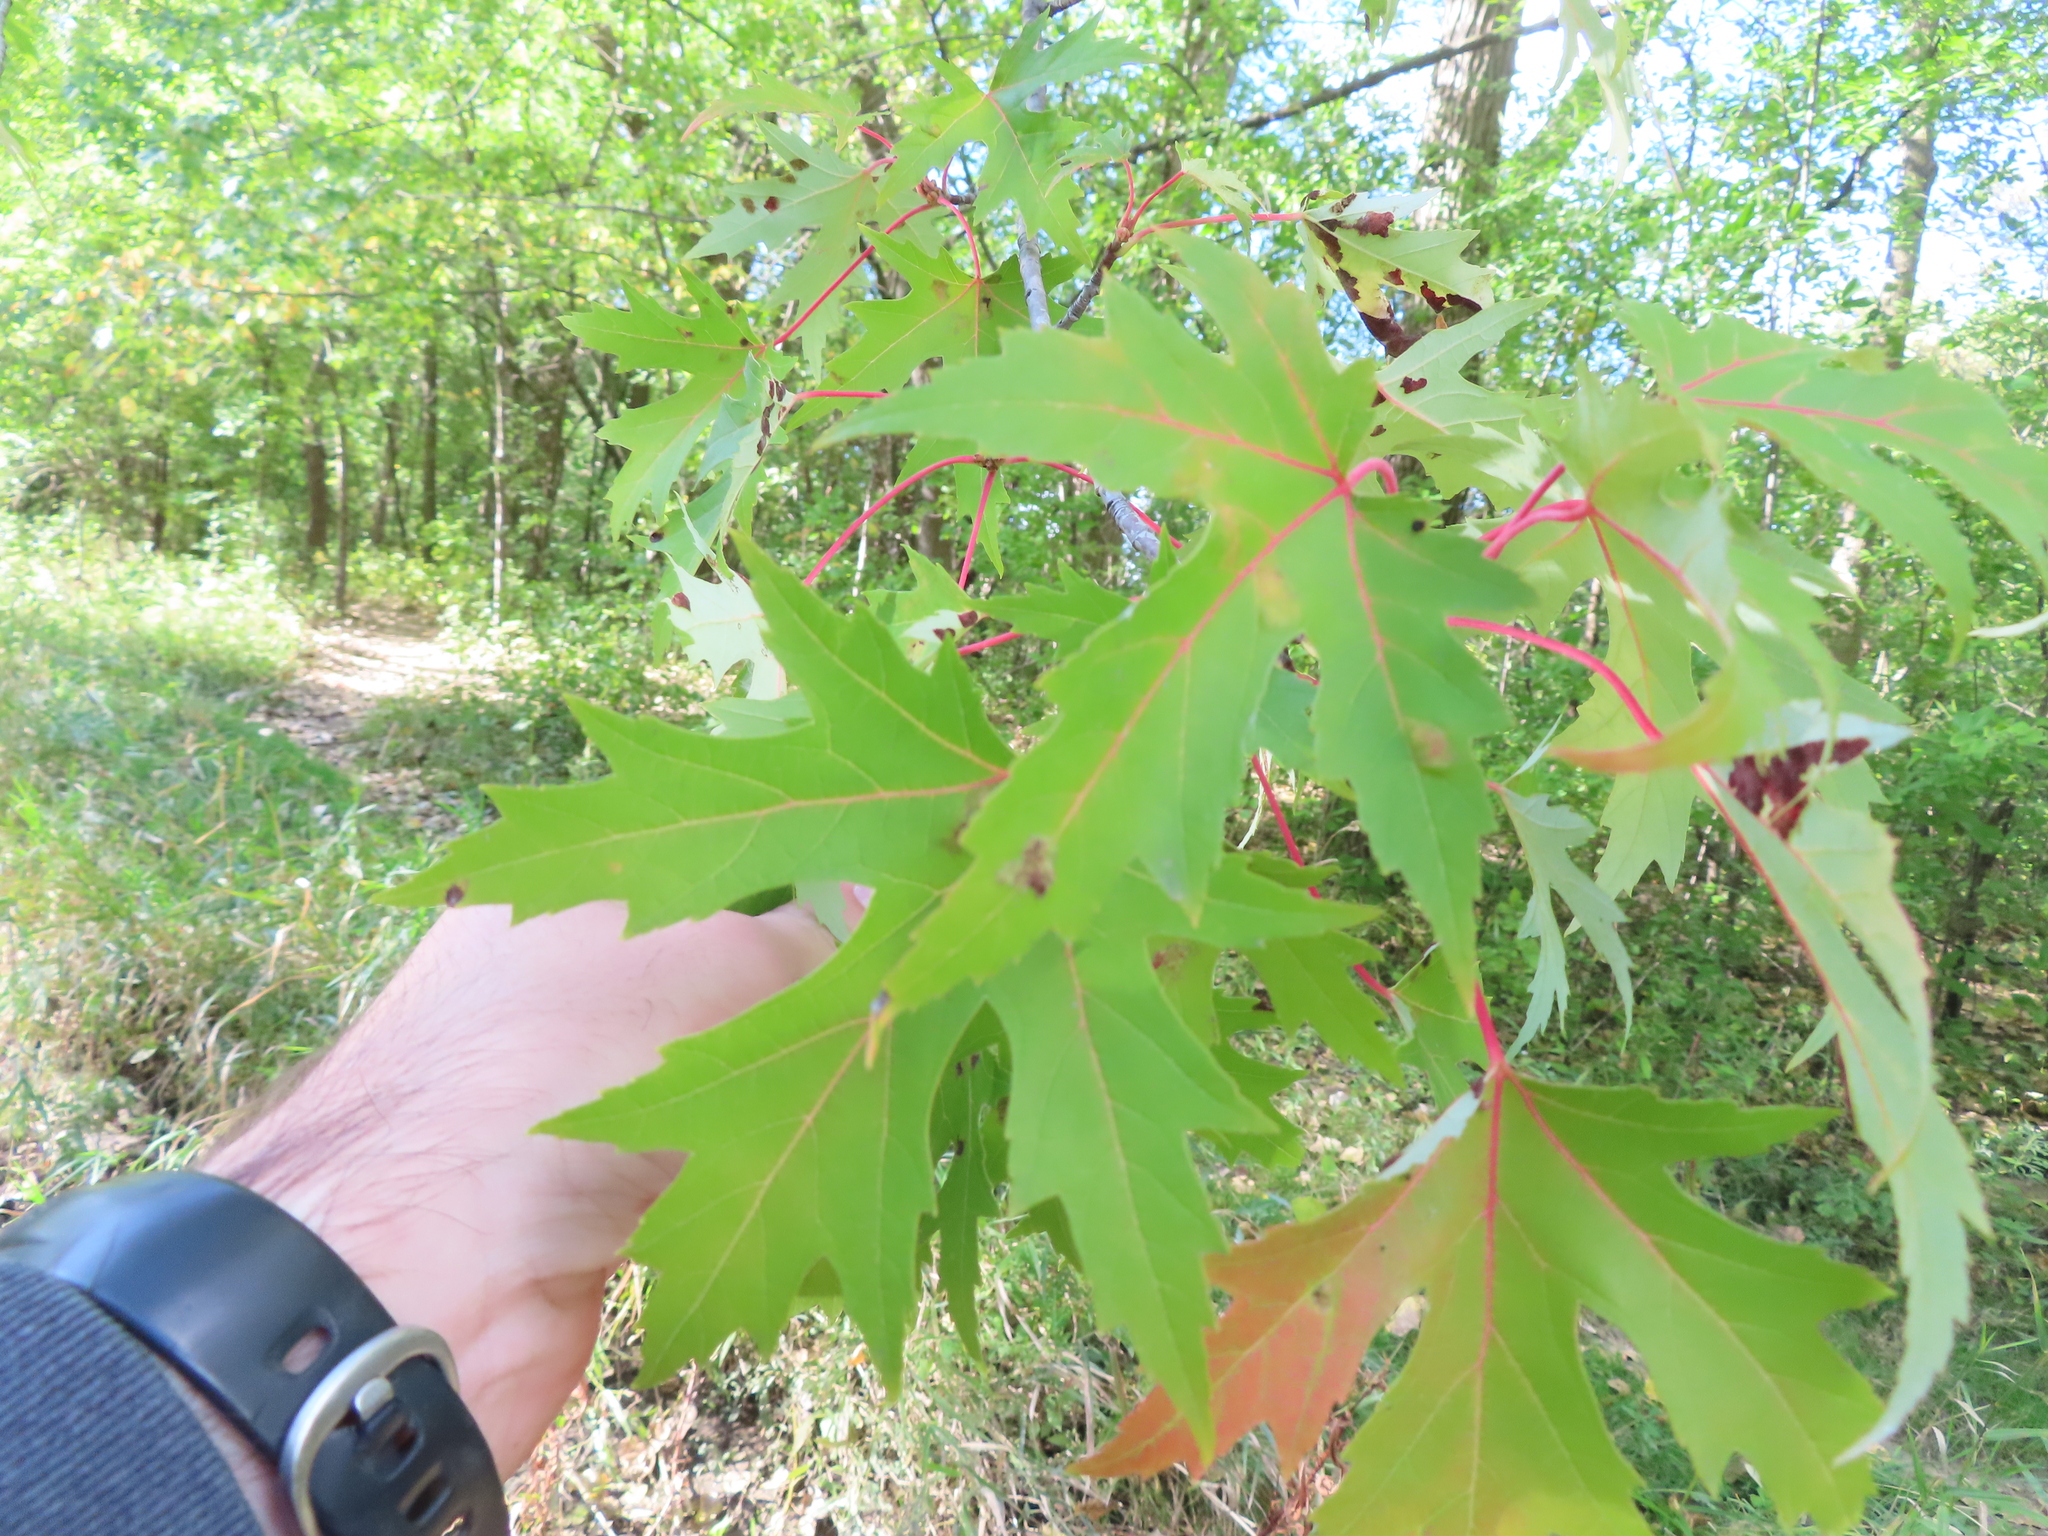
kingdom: Plantae
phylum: Tracheophyta
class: Magnoliopsida
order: Sapindales
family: Sapindaceae
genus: Acer
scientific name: Acer saccharinum
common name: Silver maple
